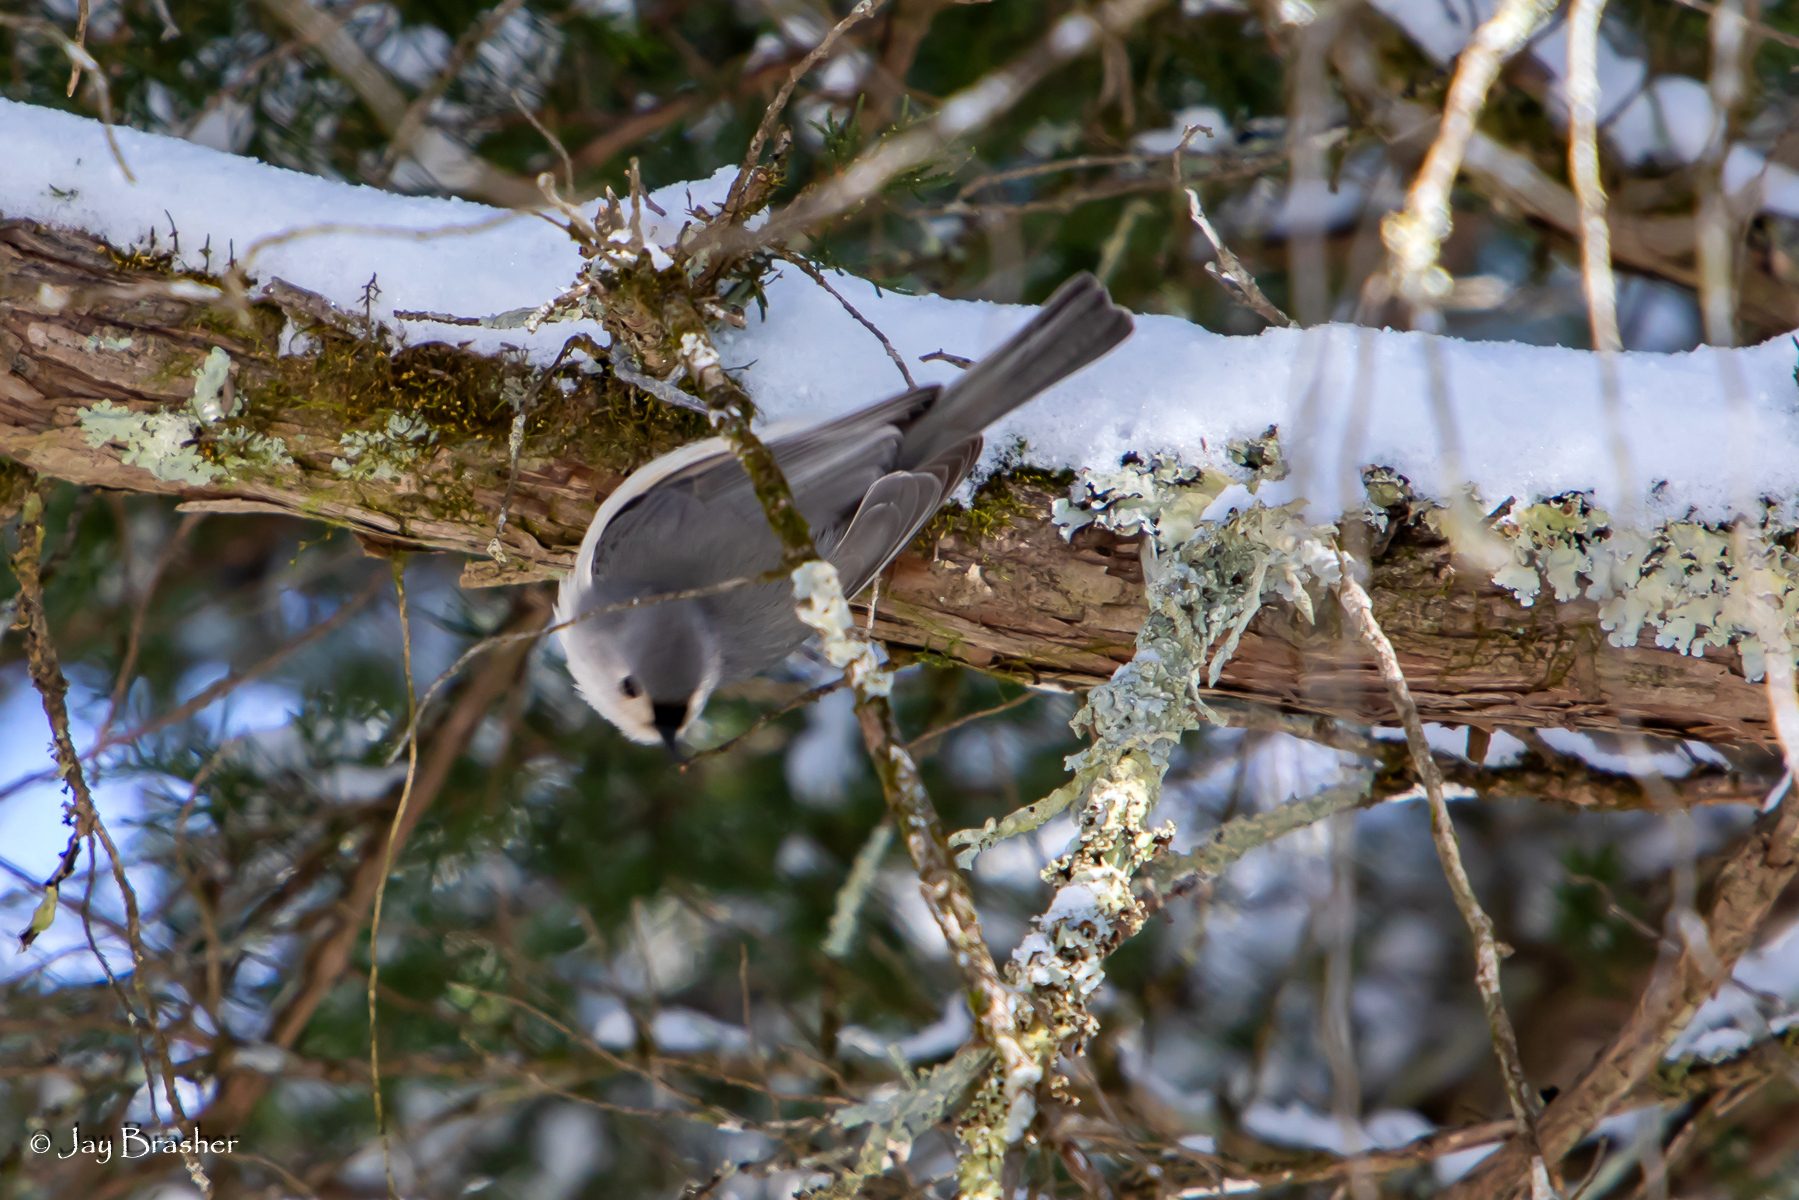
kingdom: Animalia
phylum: Chordata
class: Aves
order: Passeriformes
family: Paridae
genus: Baeolophus
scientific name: Baeolophus bicolor
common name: Tufted titmouse
